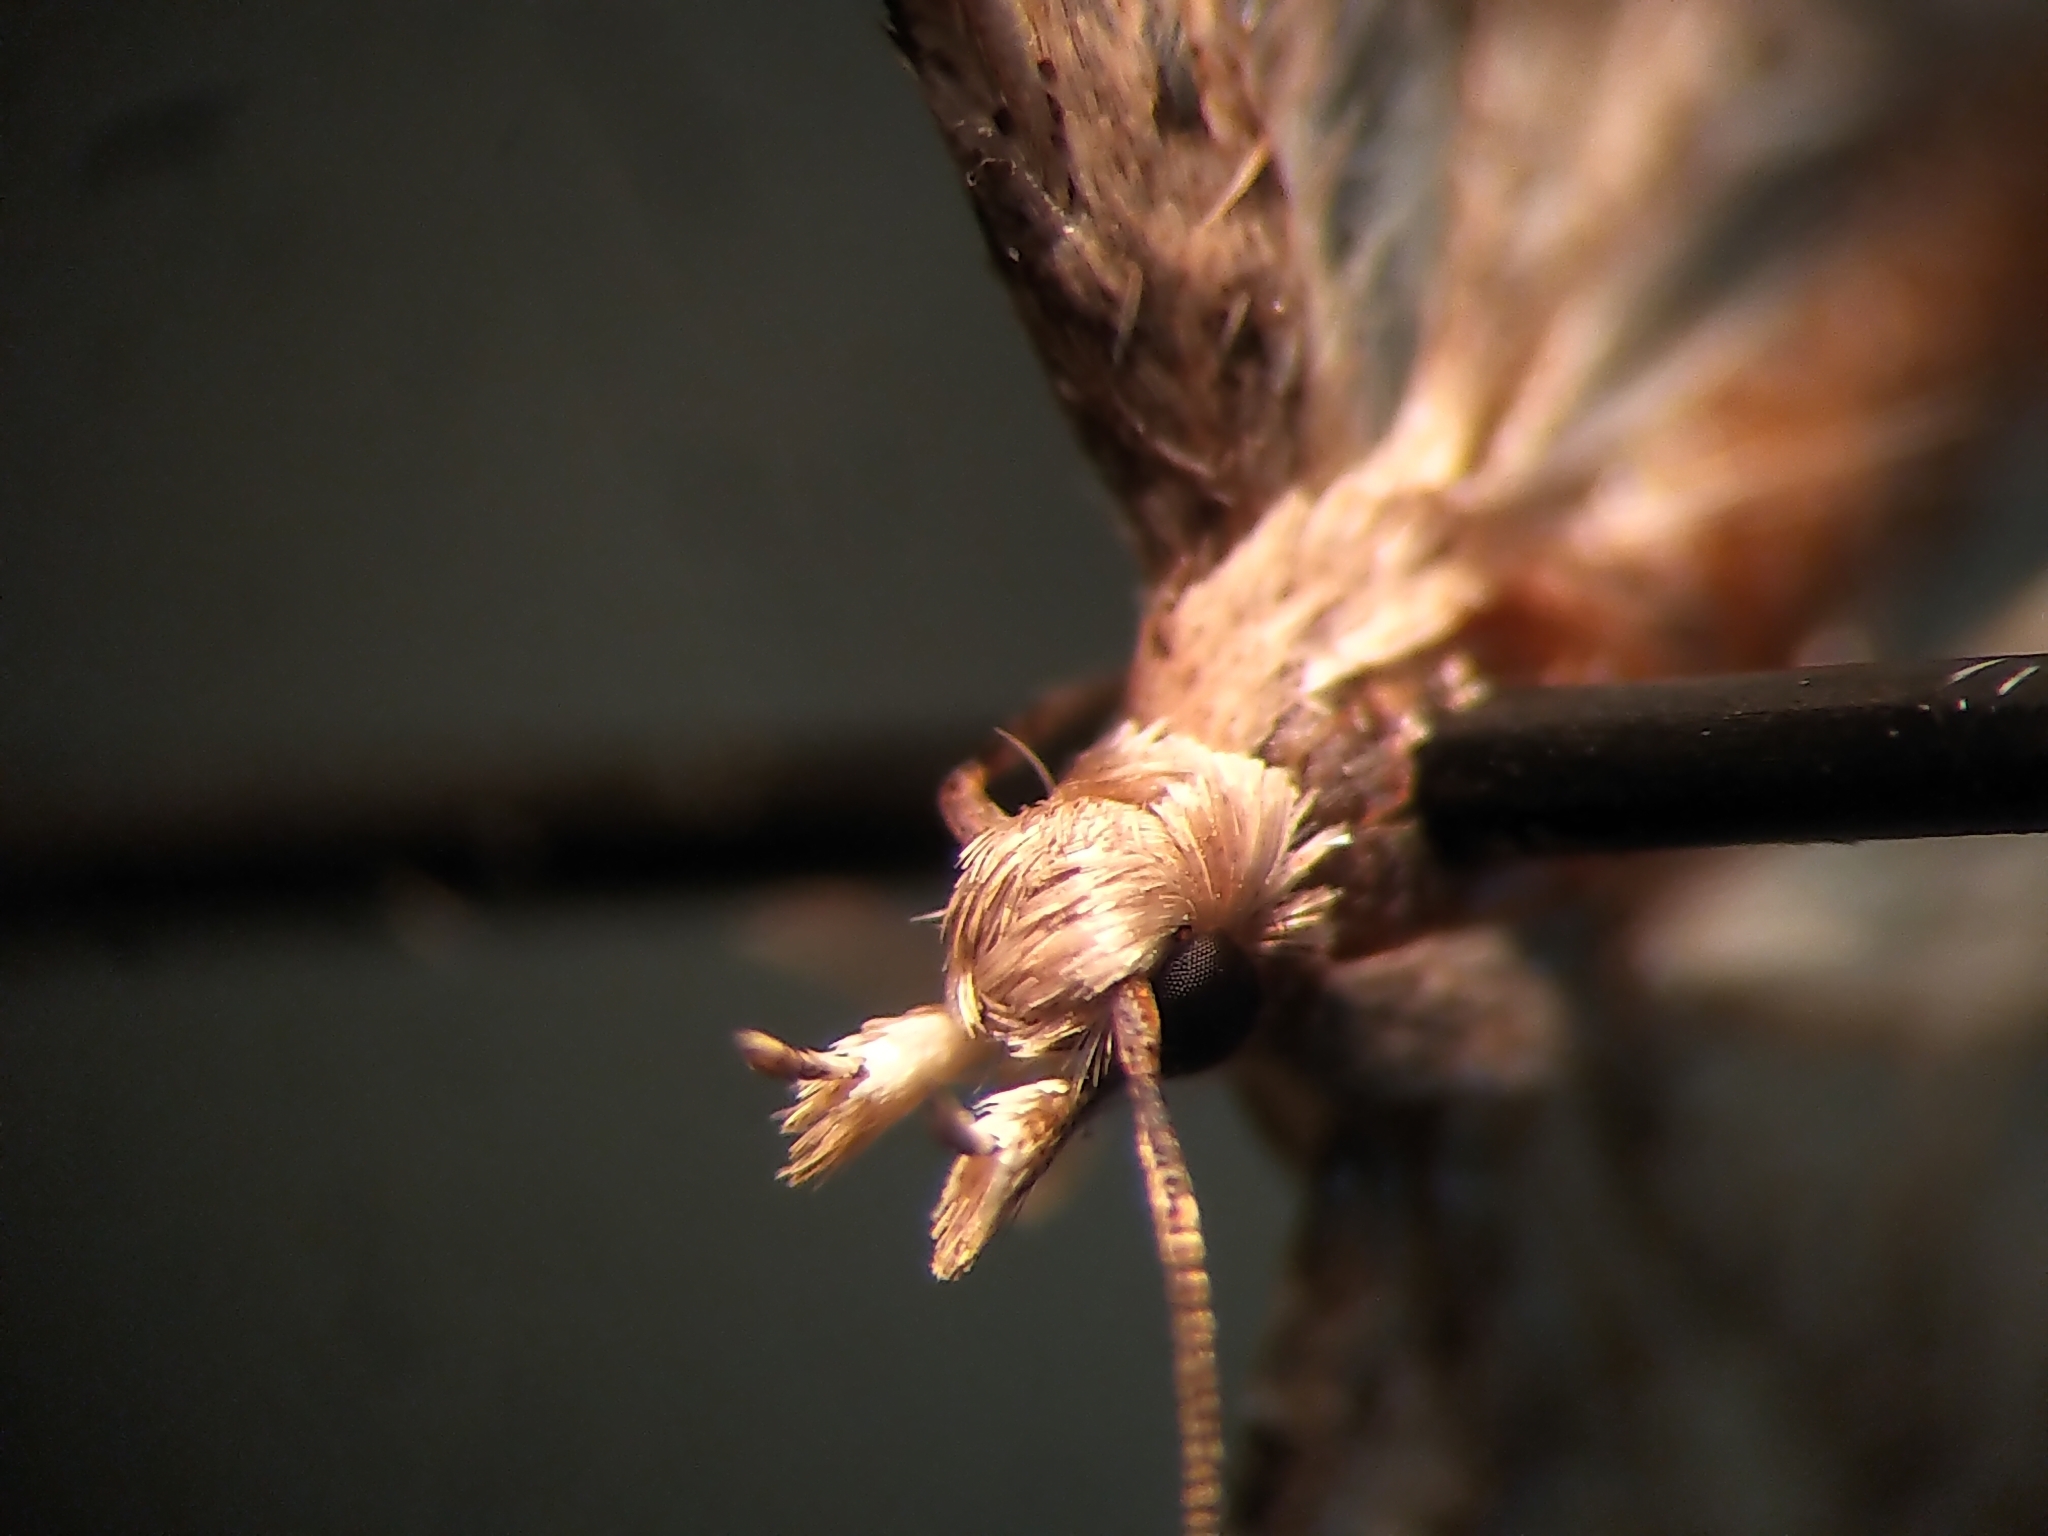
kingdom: Animalia
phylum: Arthropoda
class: Insecta
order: Lepidoptera
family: Alucitidae
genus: Alucita
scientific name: Alucita adriendenisi
